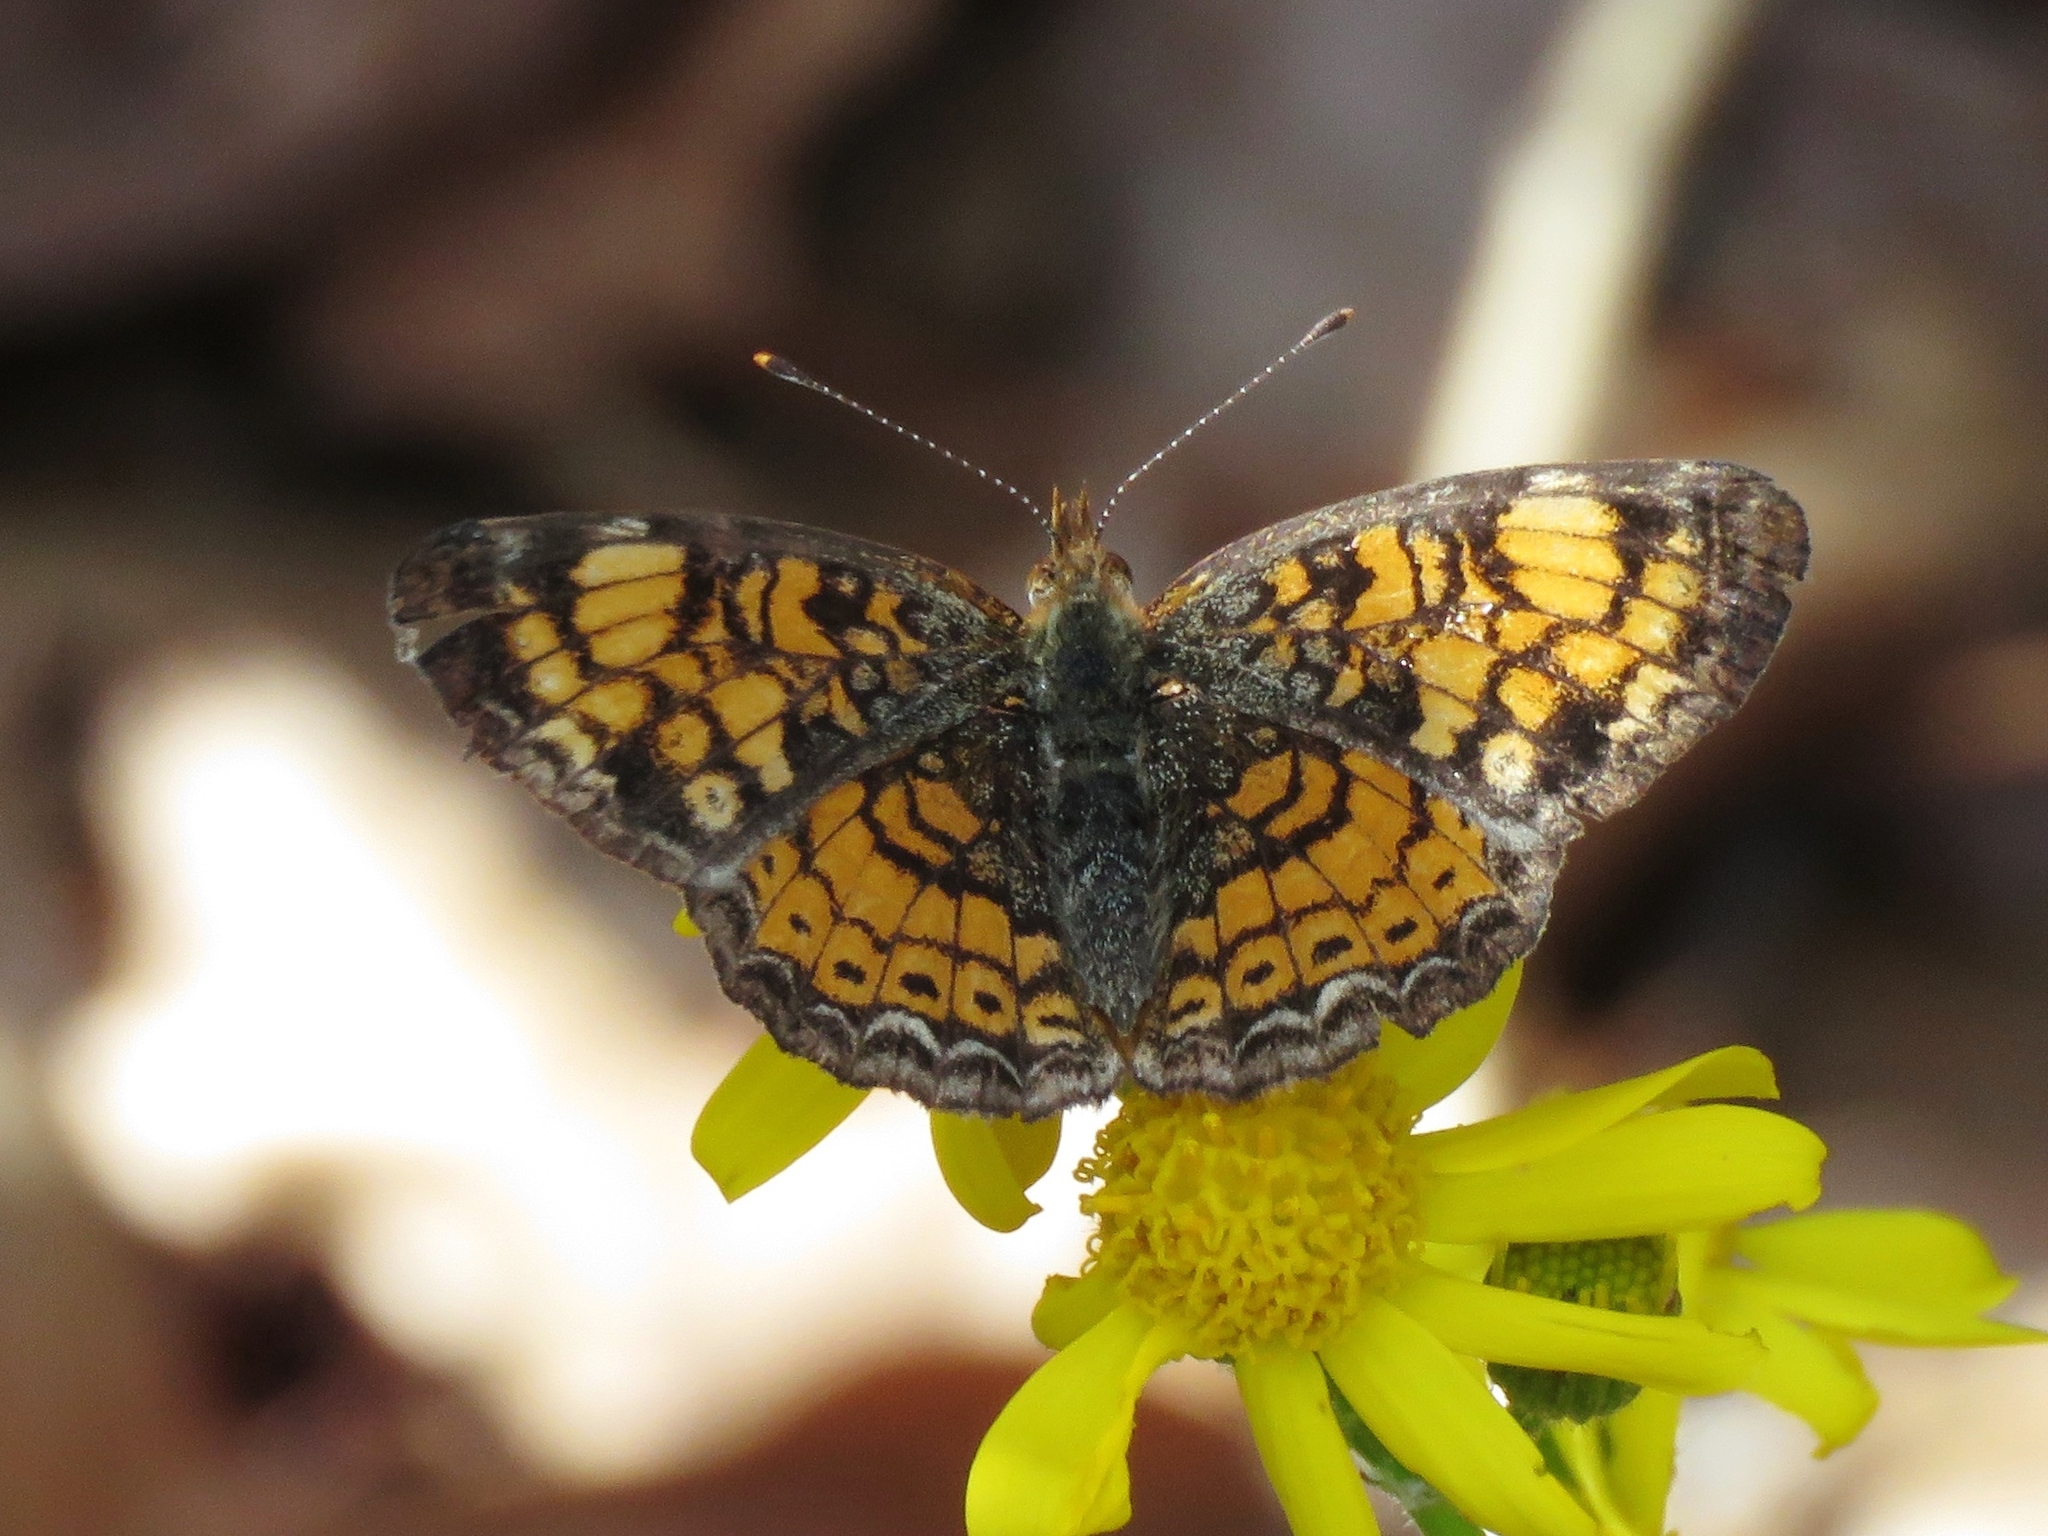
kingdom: Animalia
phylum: Arthropoda
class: Insecta
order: Lepidoptera
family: Nymphalidae
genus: Phyciodes
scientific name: Phyciodes tharos
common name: Pearl crescent
